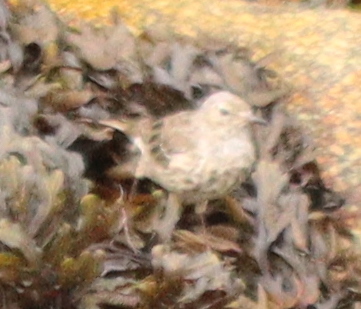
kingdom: Animalia
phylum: Chordata
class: Aves
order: Passeriformes
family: Motacillidae
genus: Anthus
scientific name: Anthus petrosus
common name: Eurasian rock pipit
